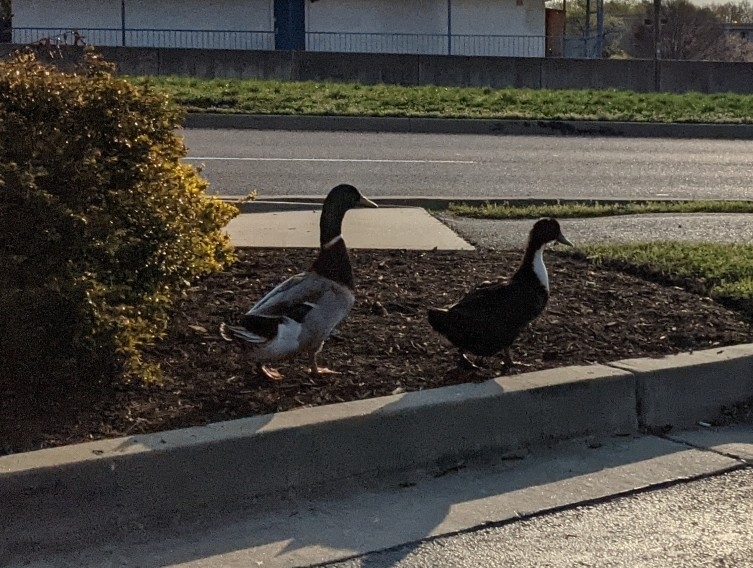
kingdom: Animalia
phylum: Chordata
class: Aves
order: Anseriformes
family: Anatidae
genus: Anas
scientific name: Anas platyrhynchos
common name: Mallard
